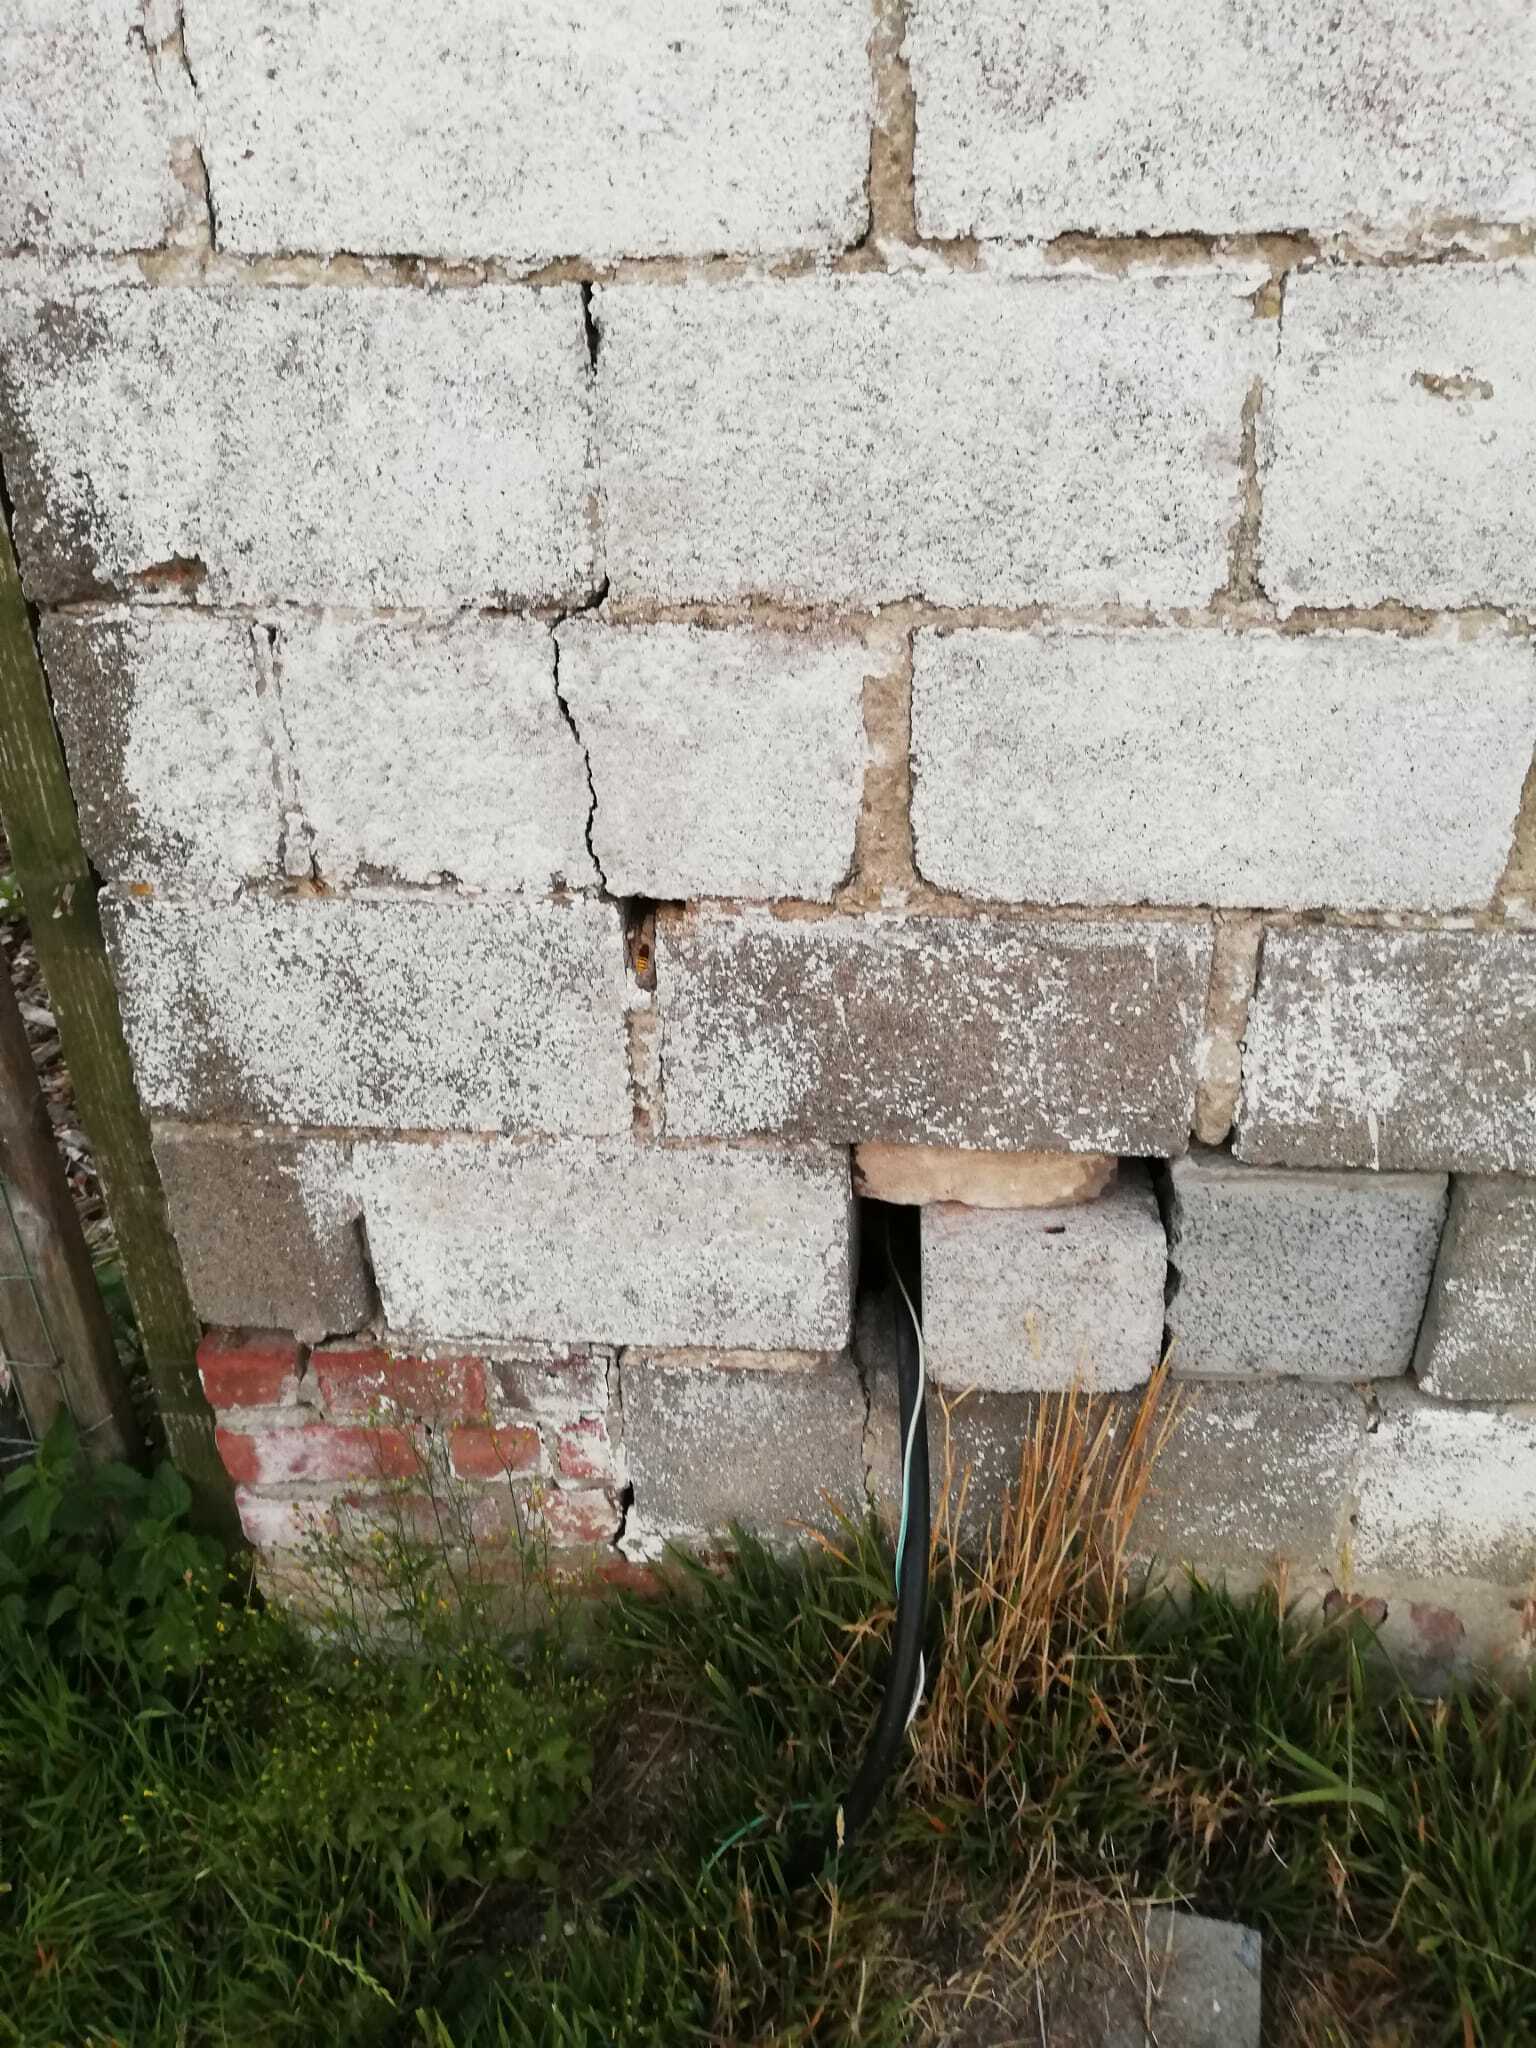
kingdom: Animalia
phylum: Arthropoda
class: Insecta
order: Hymenoptera
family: Vespidae
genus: Vespa
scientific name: Vespa crabro
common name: Hornet
